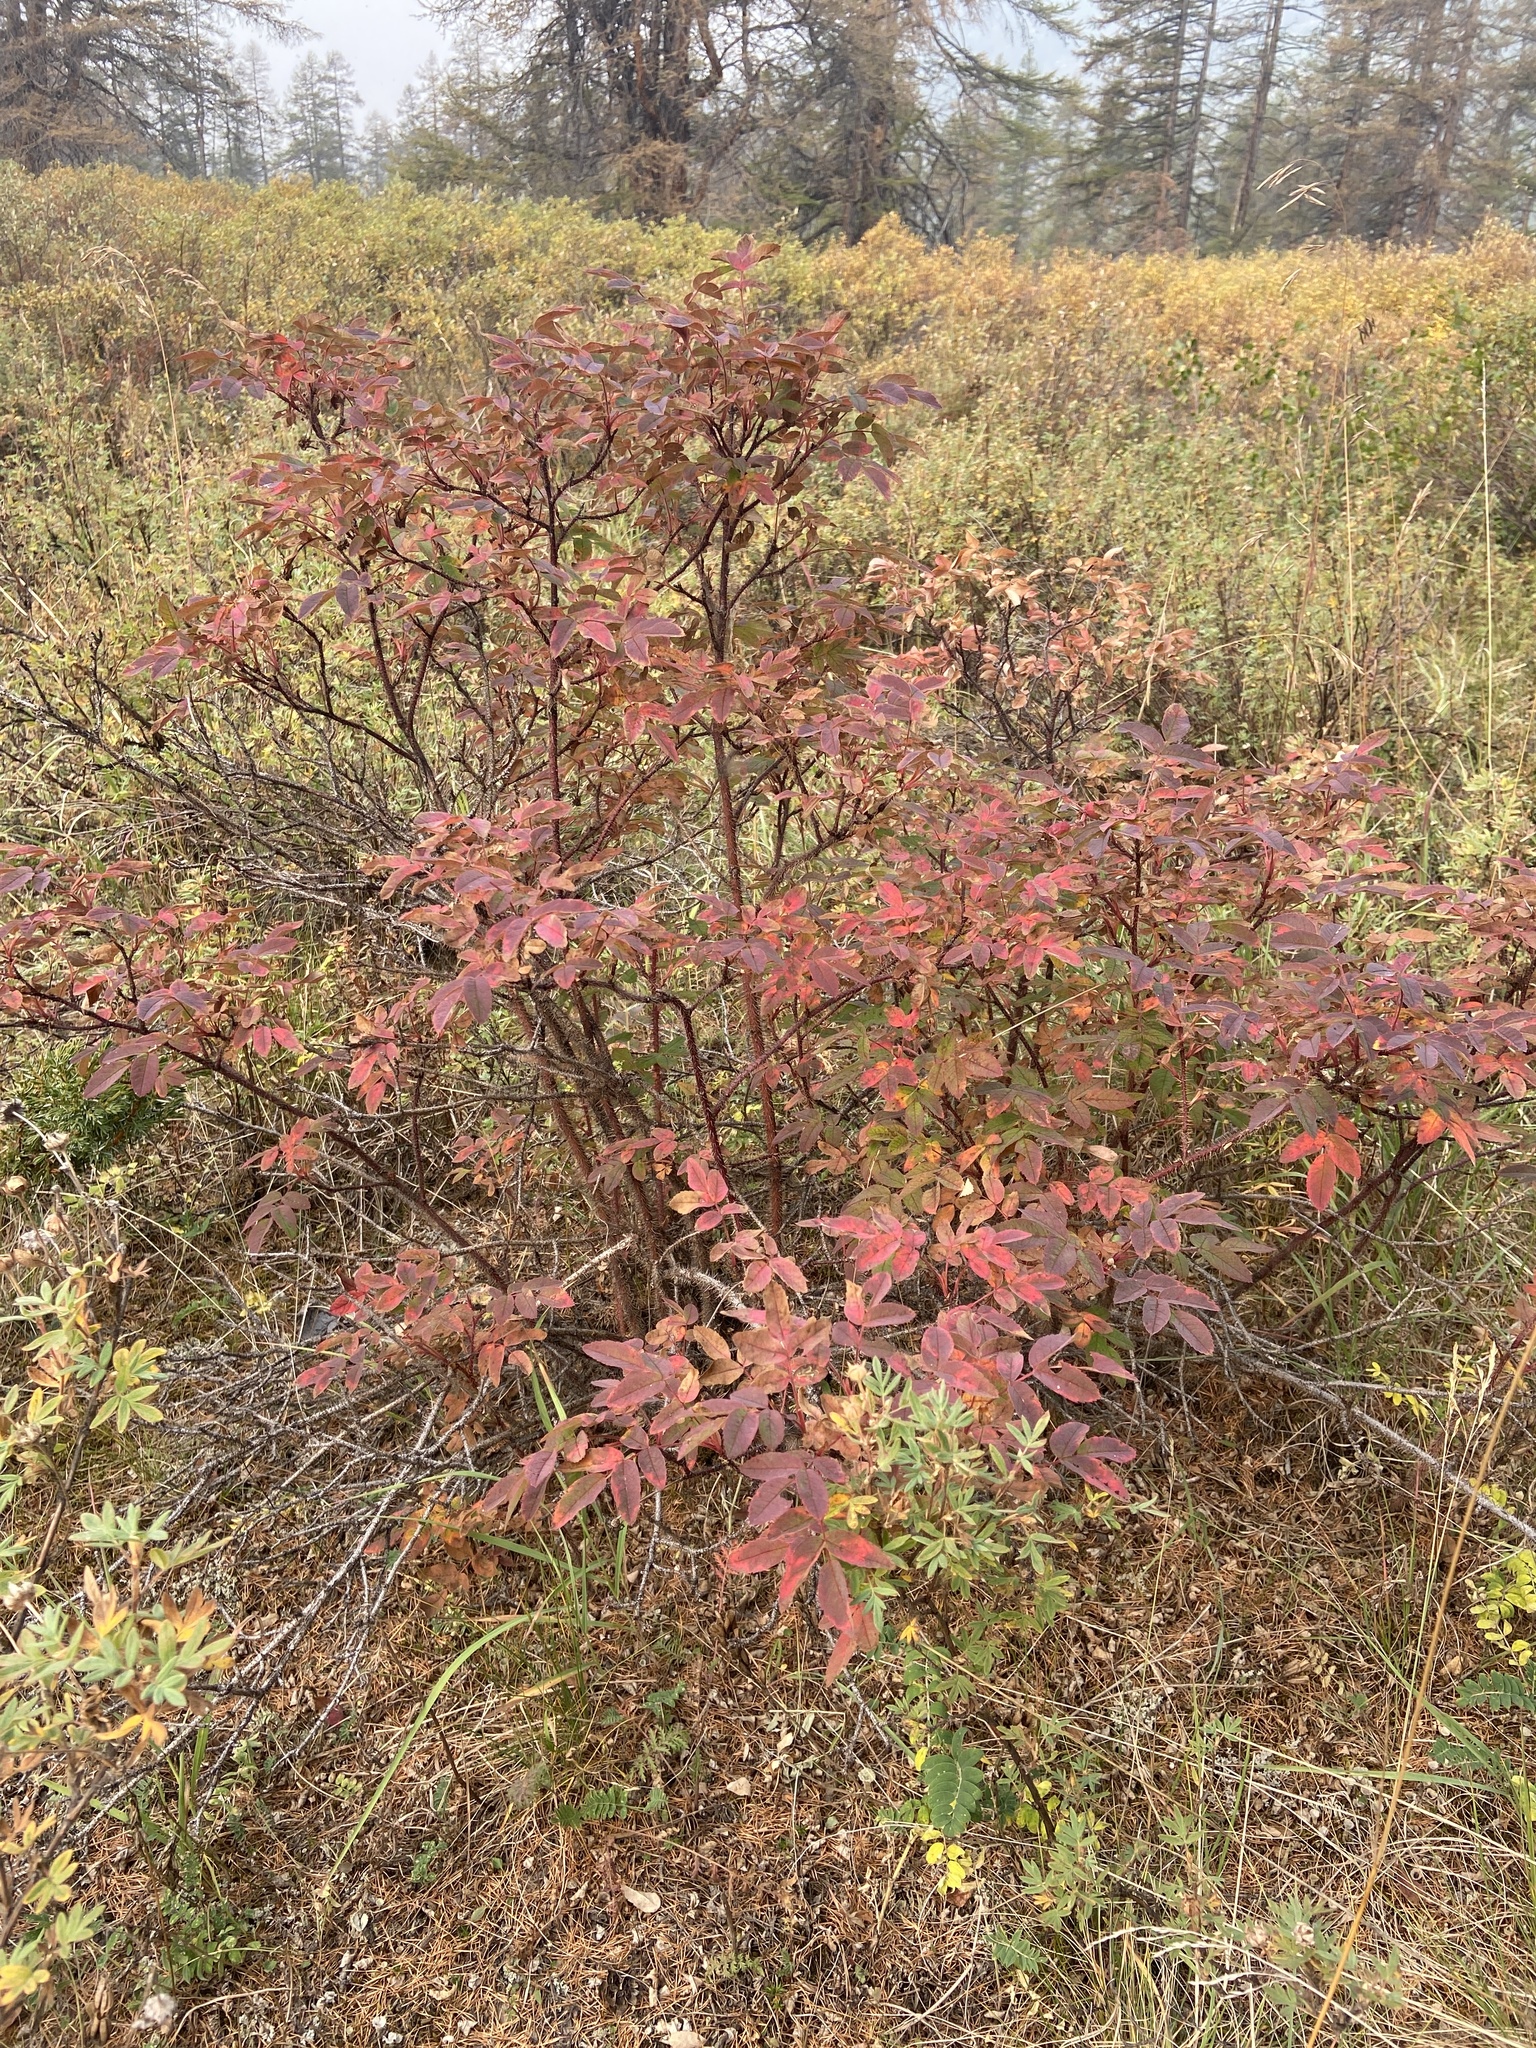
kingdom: Plantae
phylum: Tracheophyta
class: Magnoliopsida
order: Rosales
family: Rosaceae
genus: Rosa
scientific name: Rosa acicularis
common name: Prickly rose
